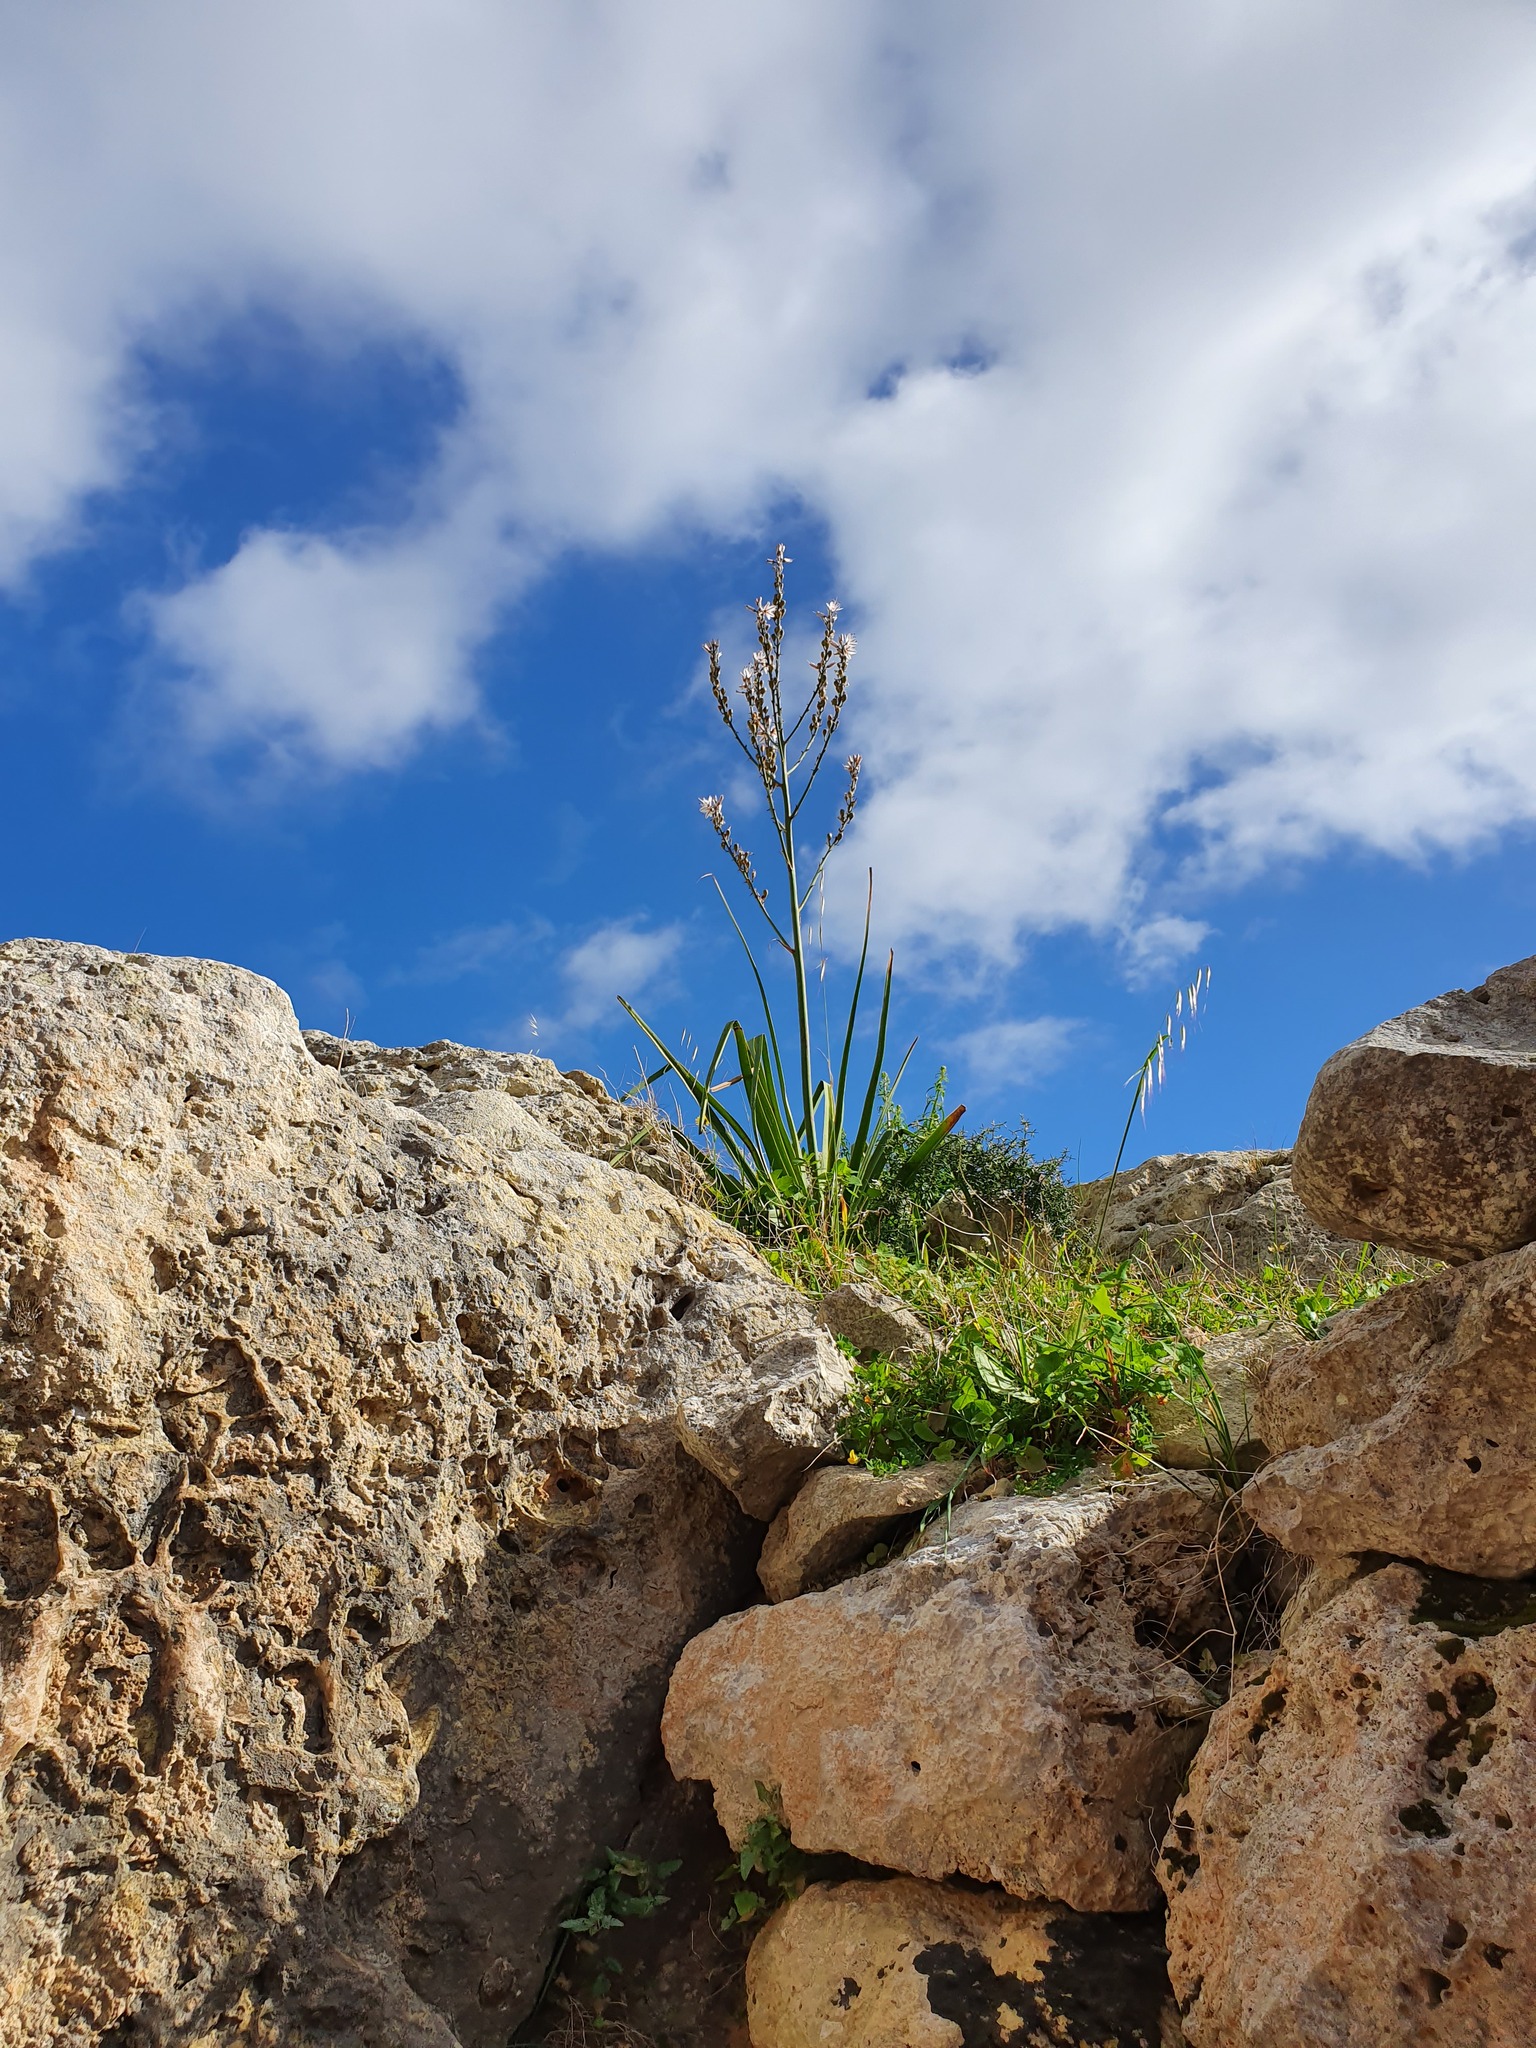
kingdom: Plantae
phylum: Tracheophyta
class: Liliopsida
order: Asparagales
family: Asphodelaceae
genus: Asphodelus
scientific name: Asphodelus ramosus
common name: Silverrod
